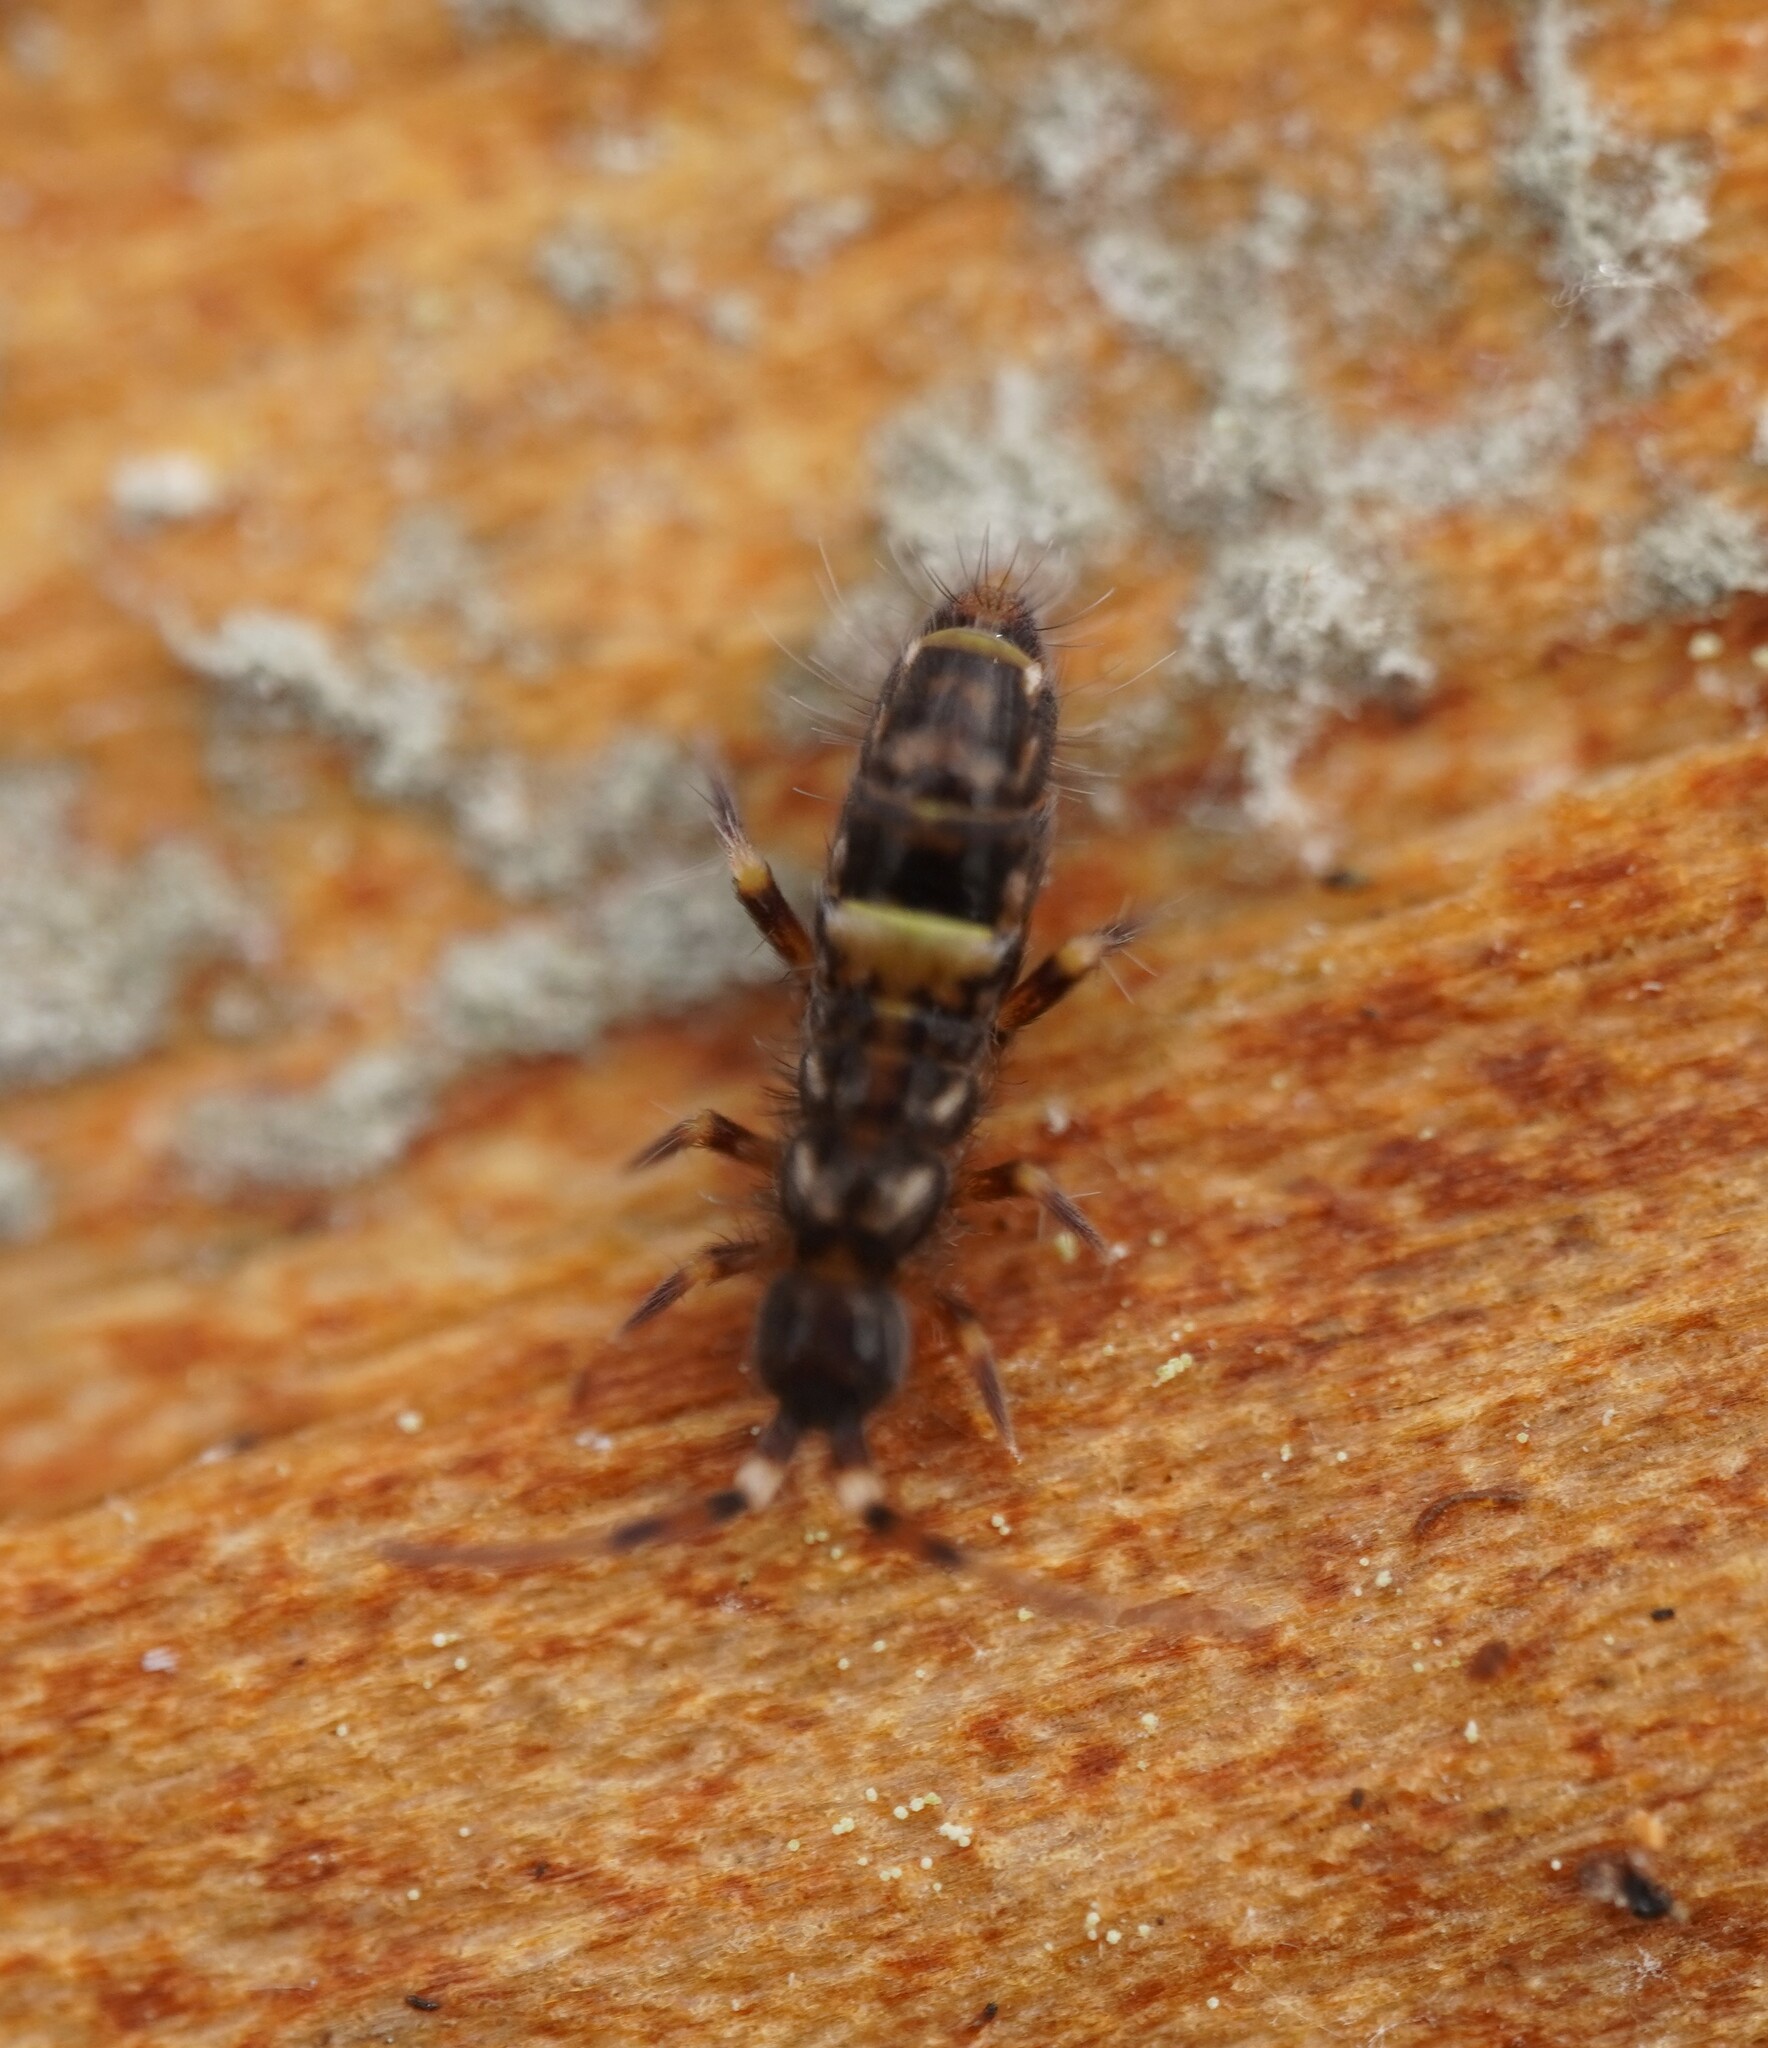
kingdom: Animalia
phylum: Arthropoda
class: Collembola
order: Entomobryomorpha
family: Orchesellidae
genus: Orchesella
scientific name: Orchesella cincta
